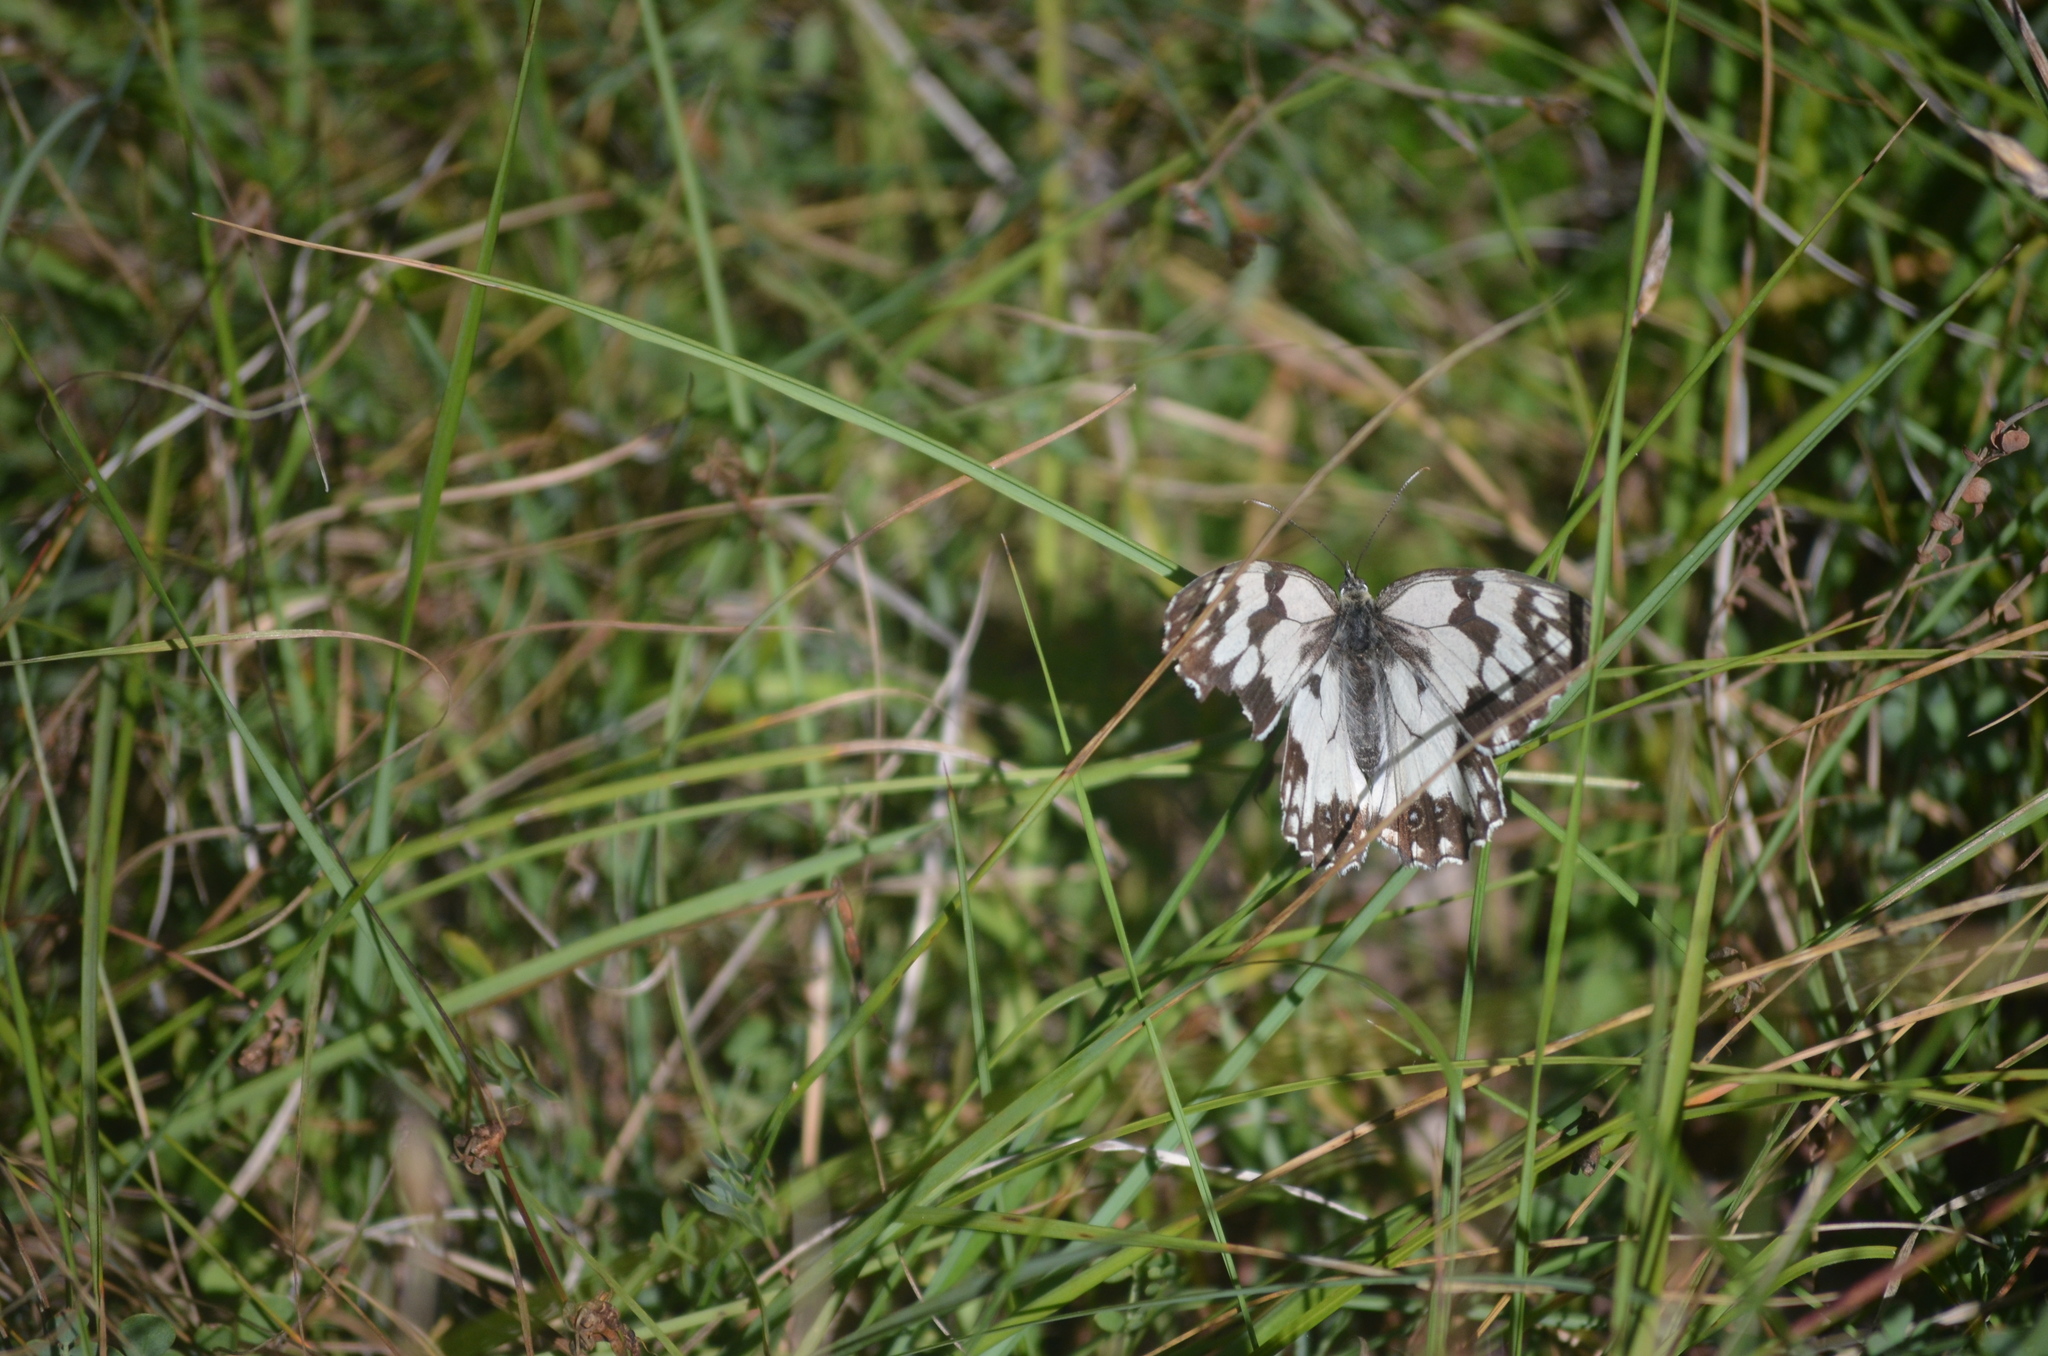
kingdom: Animalia
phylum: Arthropoda
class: Insecta
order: Lepidoptera
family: Nymphalidae
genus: Melanargia
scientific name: Melanargia lachesis
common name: Iberian marbled white
